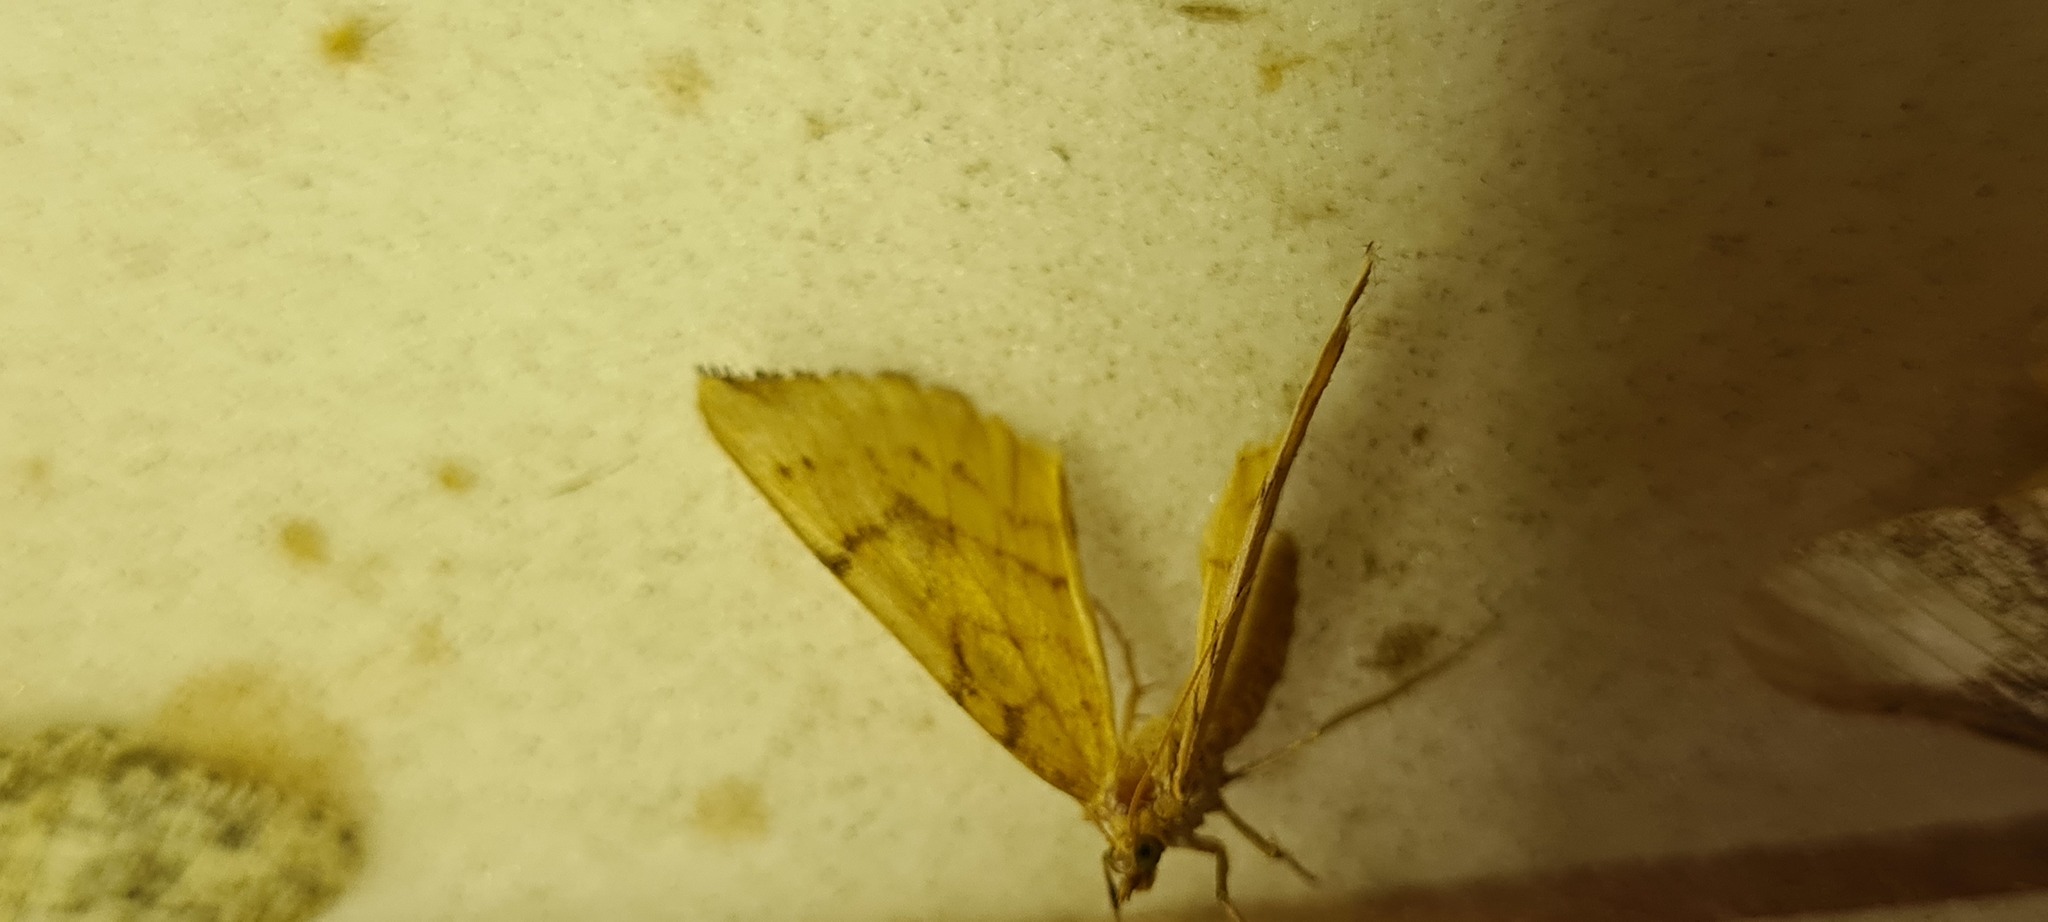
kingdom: Animalia
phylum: Arthropoda
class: Insecta
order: Lepidoptera
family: Geometridae
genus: Eulithis
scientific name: Eulithis pyraliata
